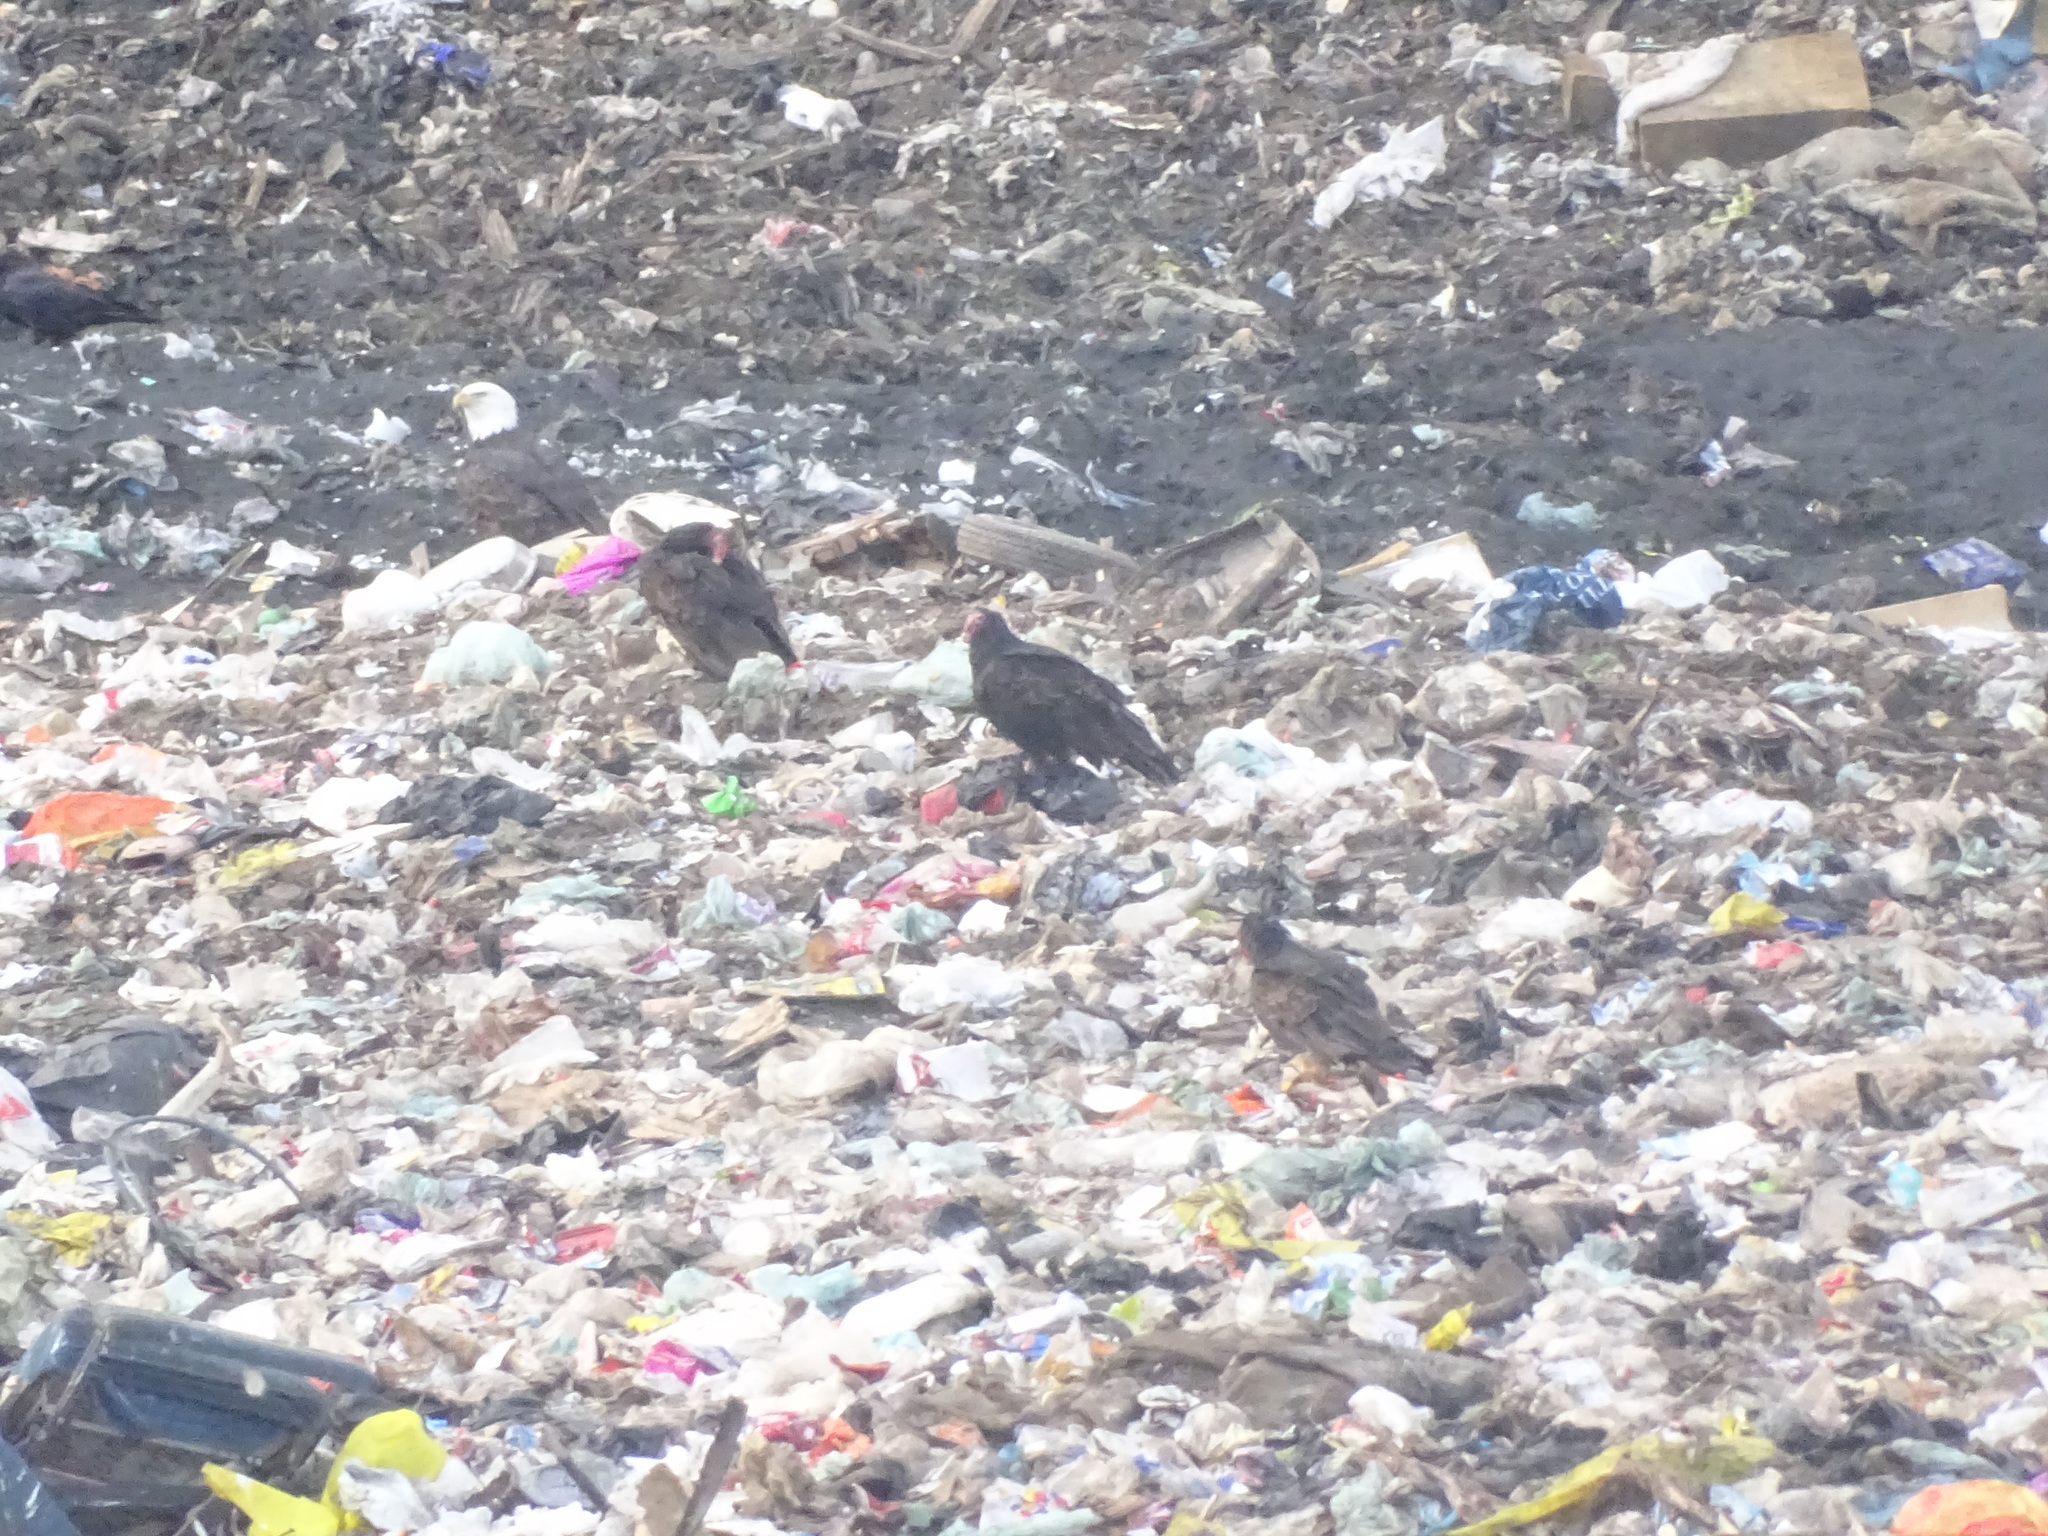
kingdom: Animalia
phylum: Chordata
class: Aves
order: Accipitriformes
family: Cathartidae
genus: Cathartes
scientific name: Cathartes aura
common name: Turkey vulture
